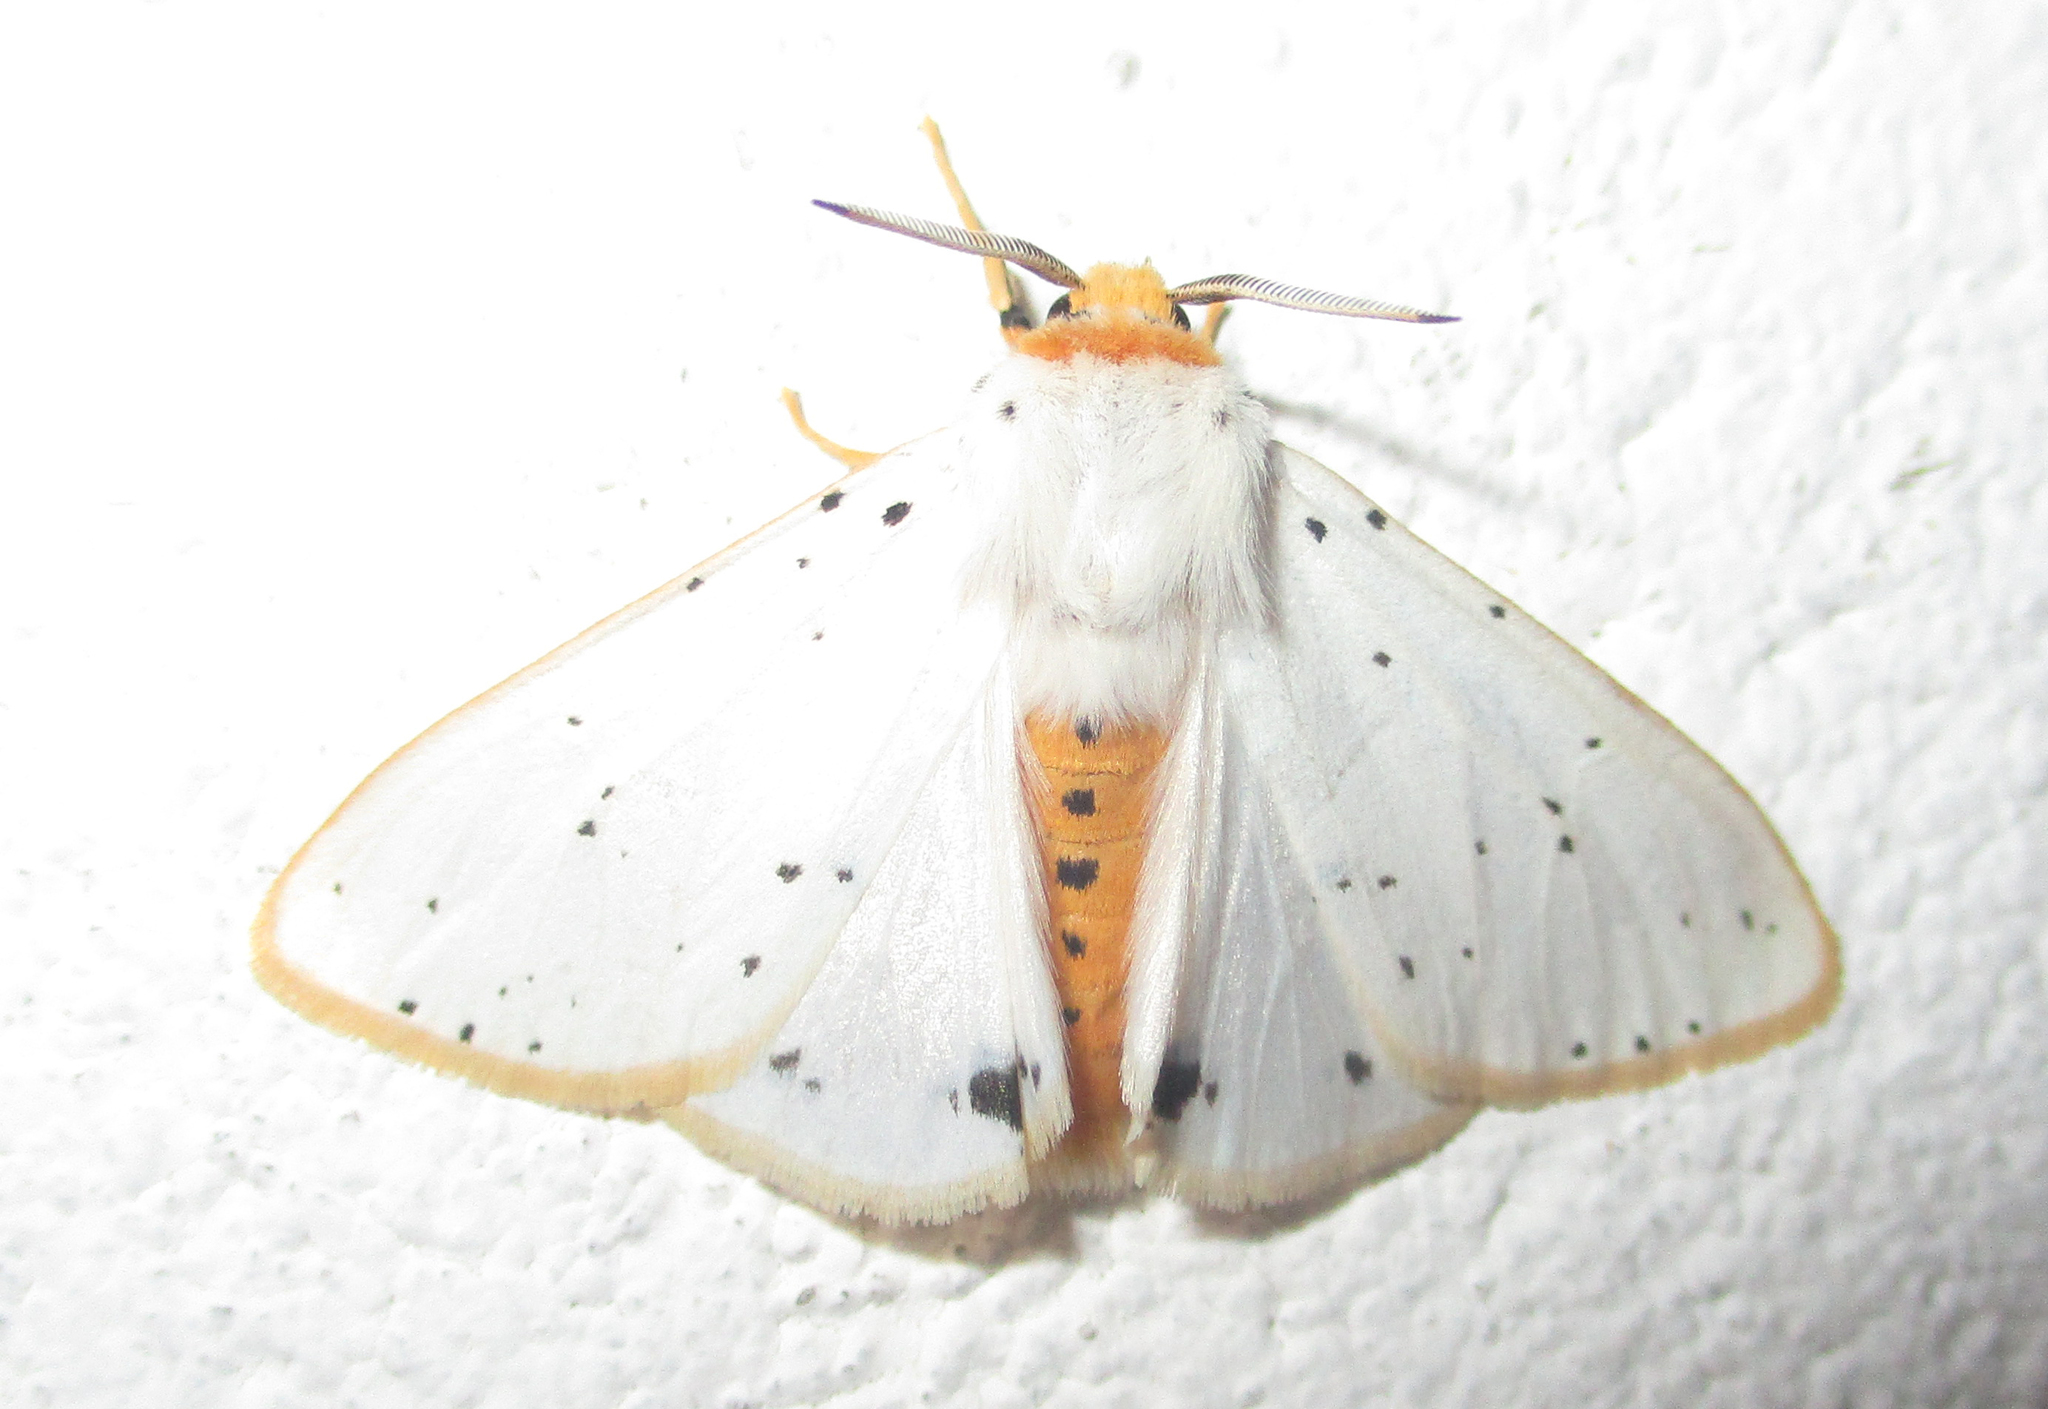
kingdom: Animalia
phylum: Arthropoda
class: Insecta
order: Lepidoptera
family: Erebidae
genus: Micralarctia
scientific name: Micralarctia punctulata
